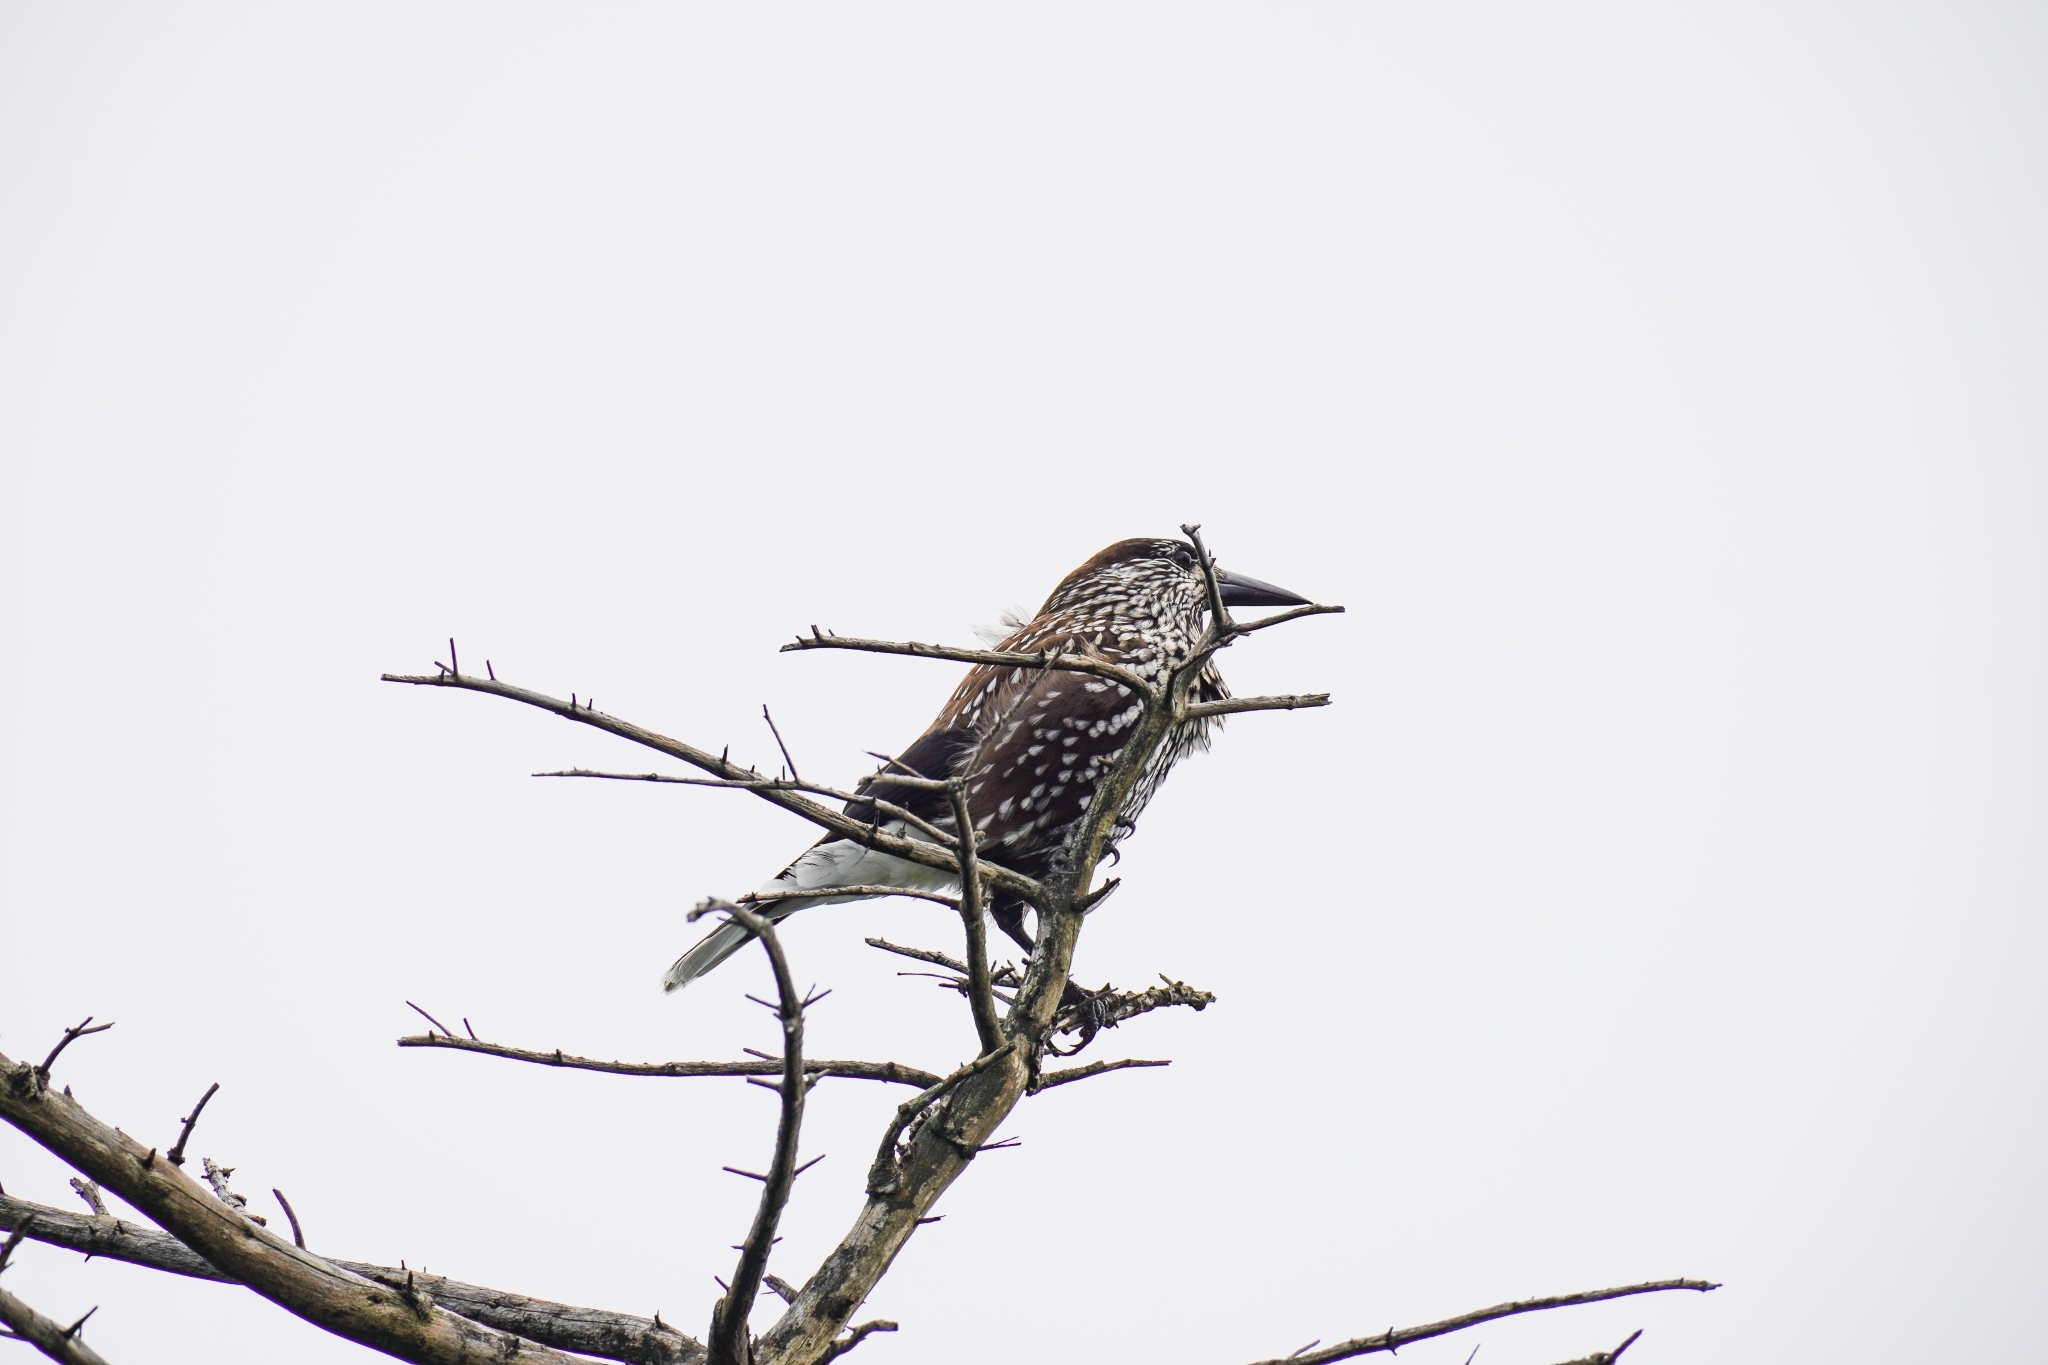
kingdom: Animalia
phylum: Chordata
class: Aves
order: Passeriformes
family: Corvidae
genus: Nucifraga
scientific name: Nucifraga caryocatactes
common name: Spotted nutcracker
